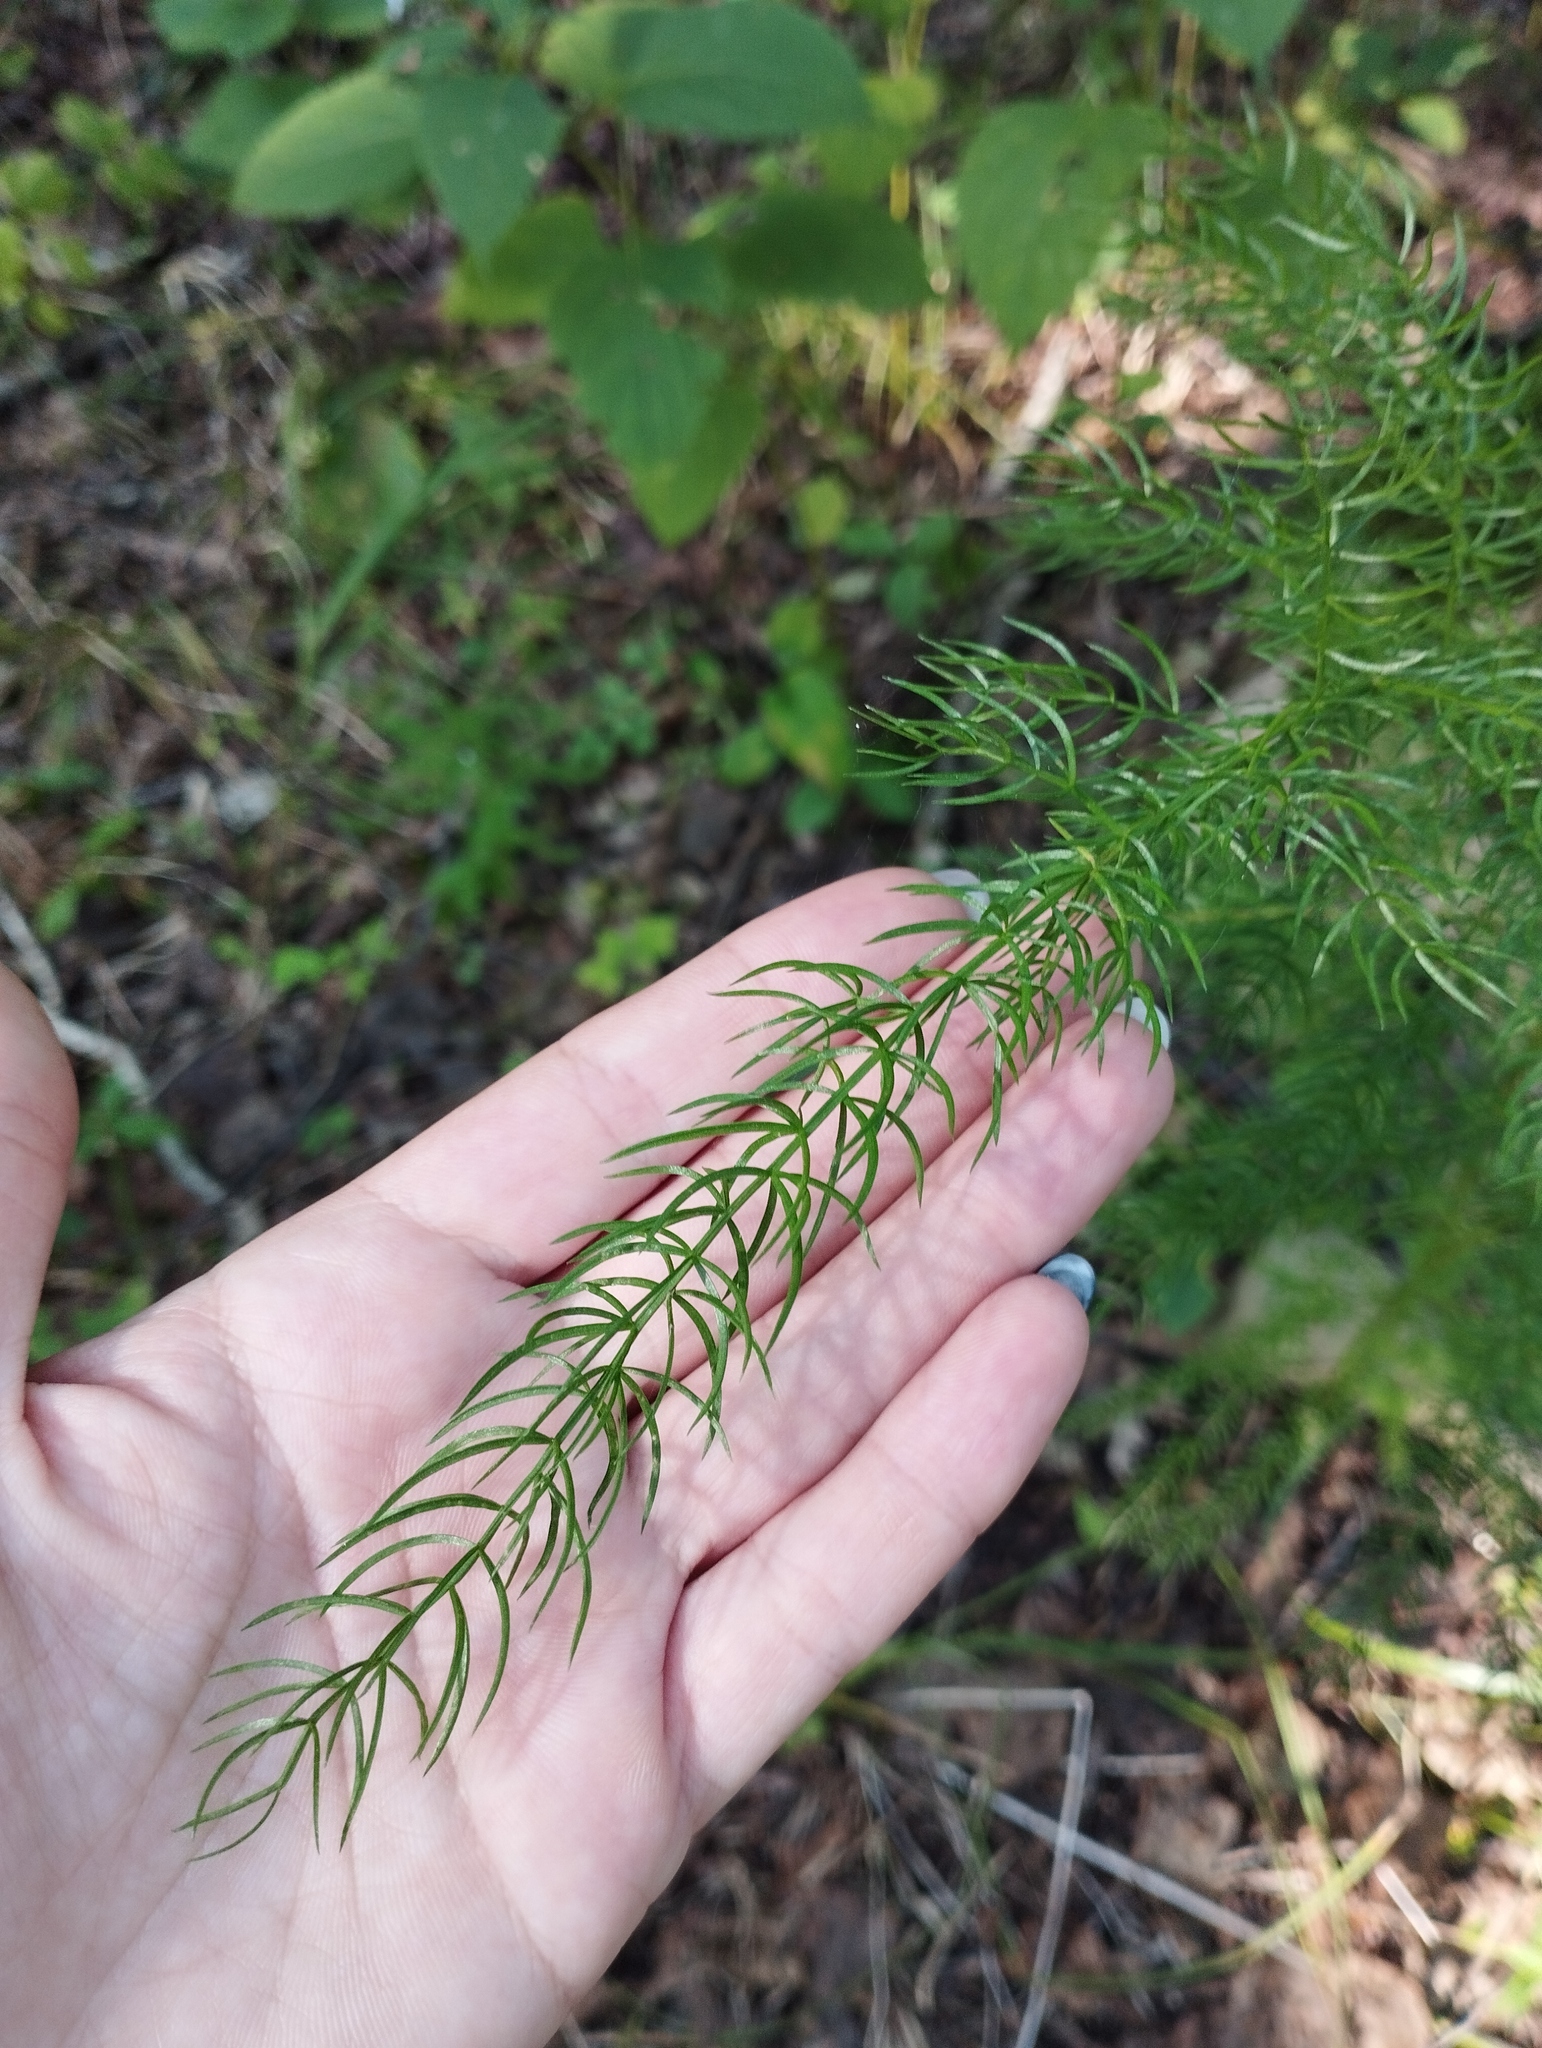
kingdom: Plantae
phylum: Tracheophyta
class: Liliopsida
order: Asparagales
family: Asparagaceae
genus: Asparagus
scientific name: Asparagus schoberioides
